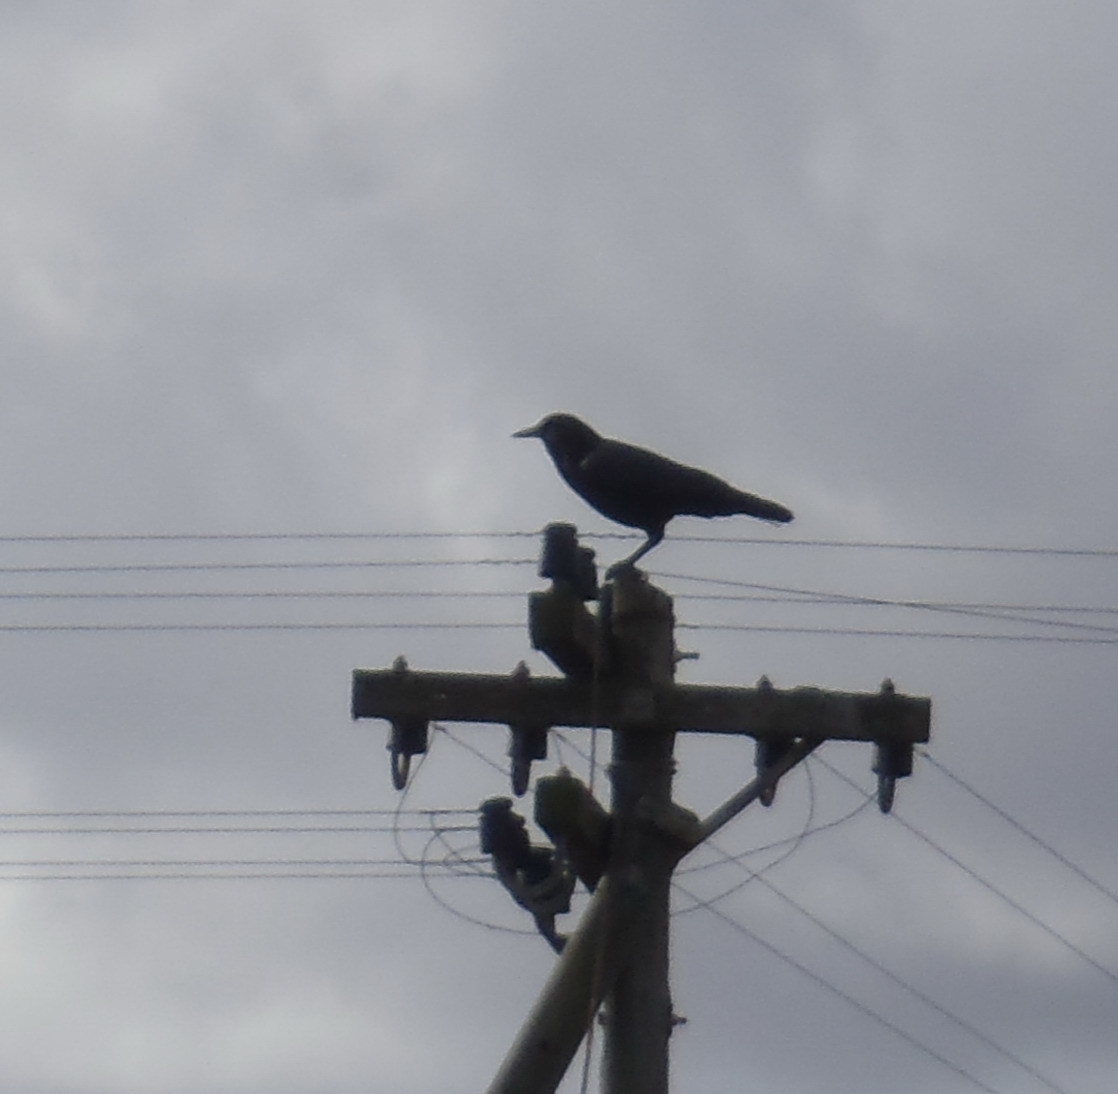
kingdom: Animalia
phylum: Chordata
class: Aves
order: Passeriformes
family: Corvidae
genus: Corvus
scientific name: Corvus capensis
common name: Cape crow
